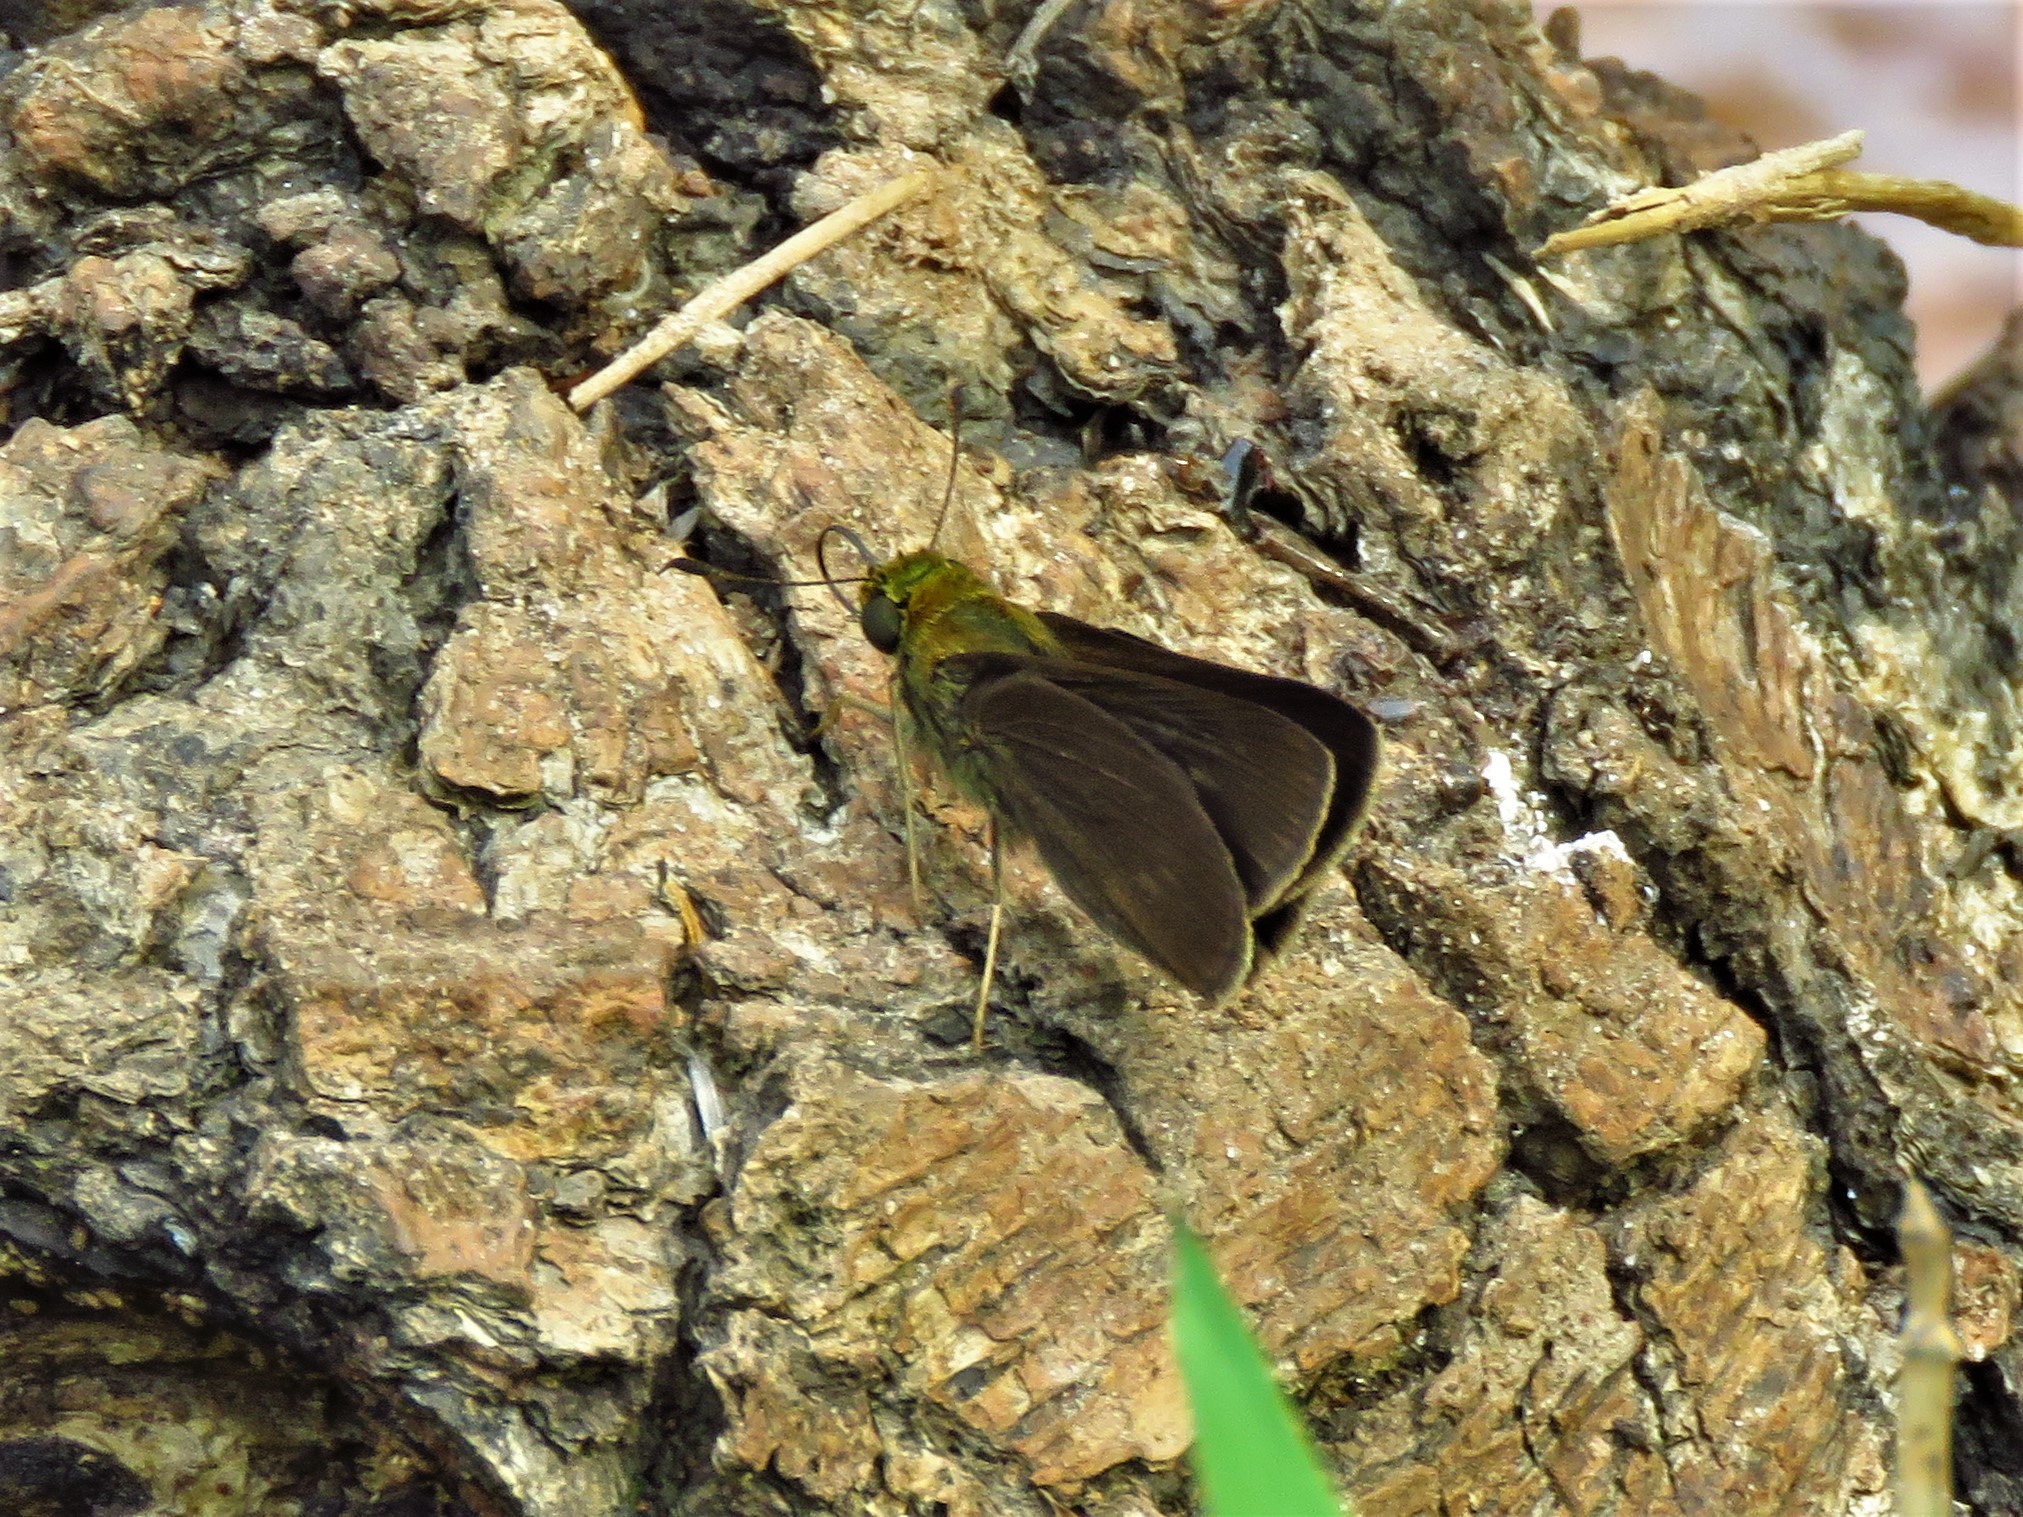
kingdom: Animalia
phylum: Arthropoda
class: Insecta
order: Lepidoptera
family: Hesperiidae
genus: Euphyes
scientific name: Euphyes vestris
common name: Dun skipper
